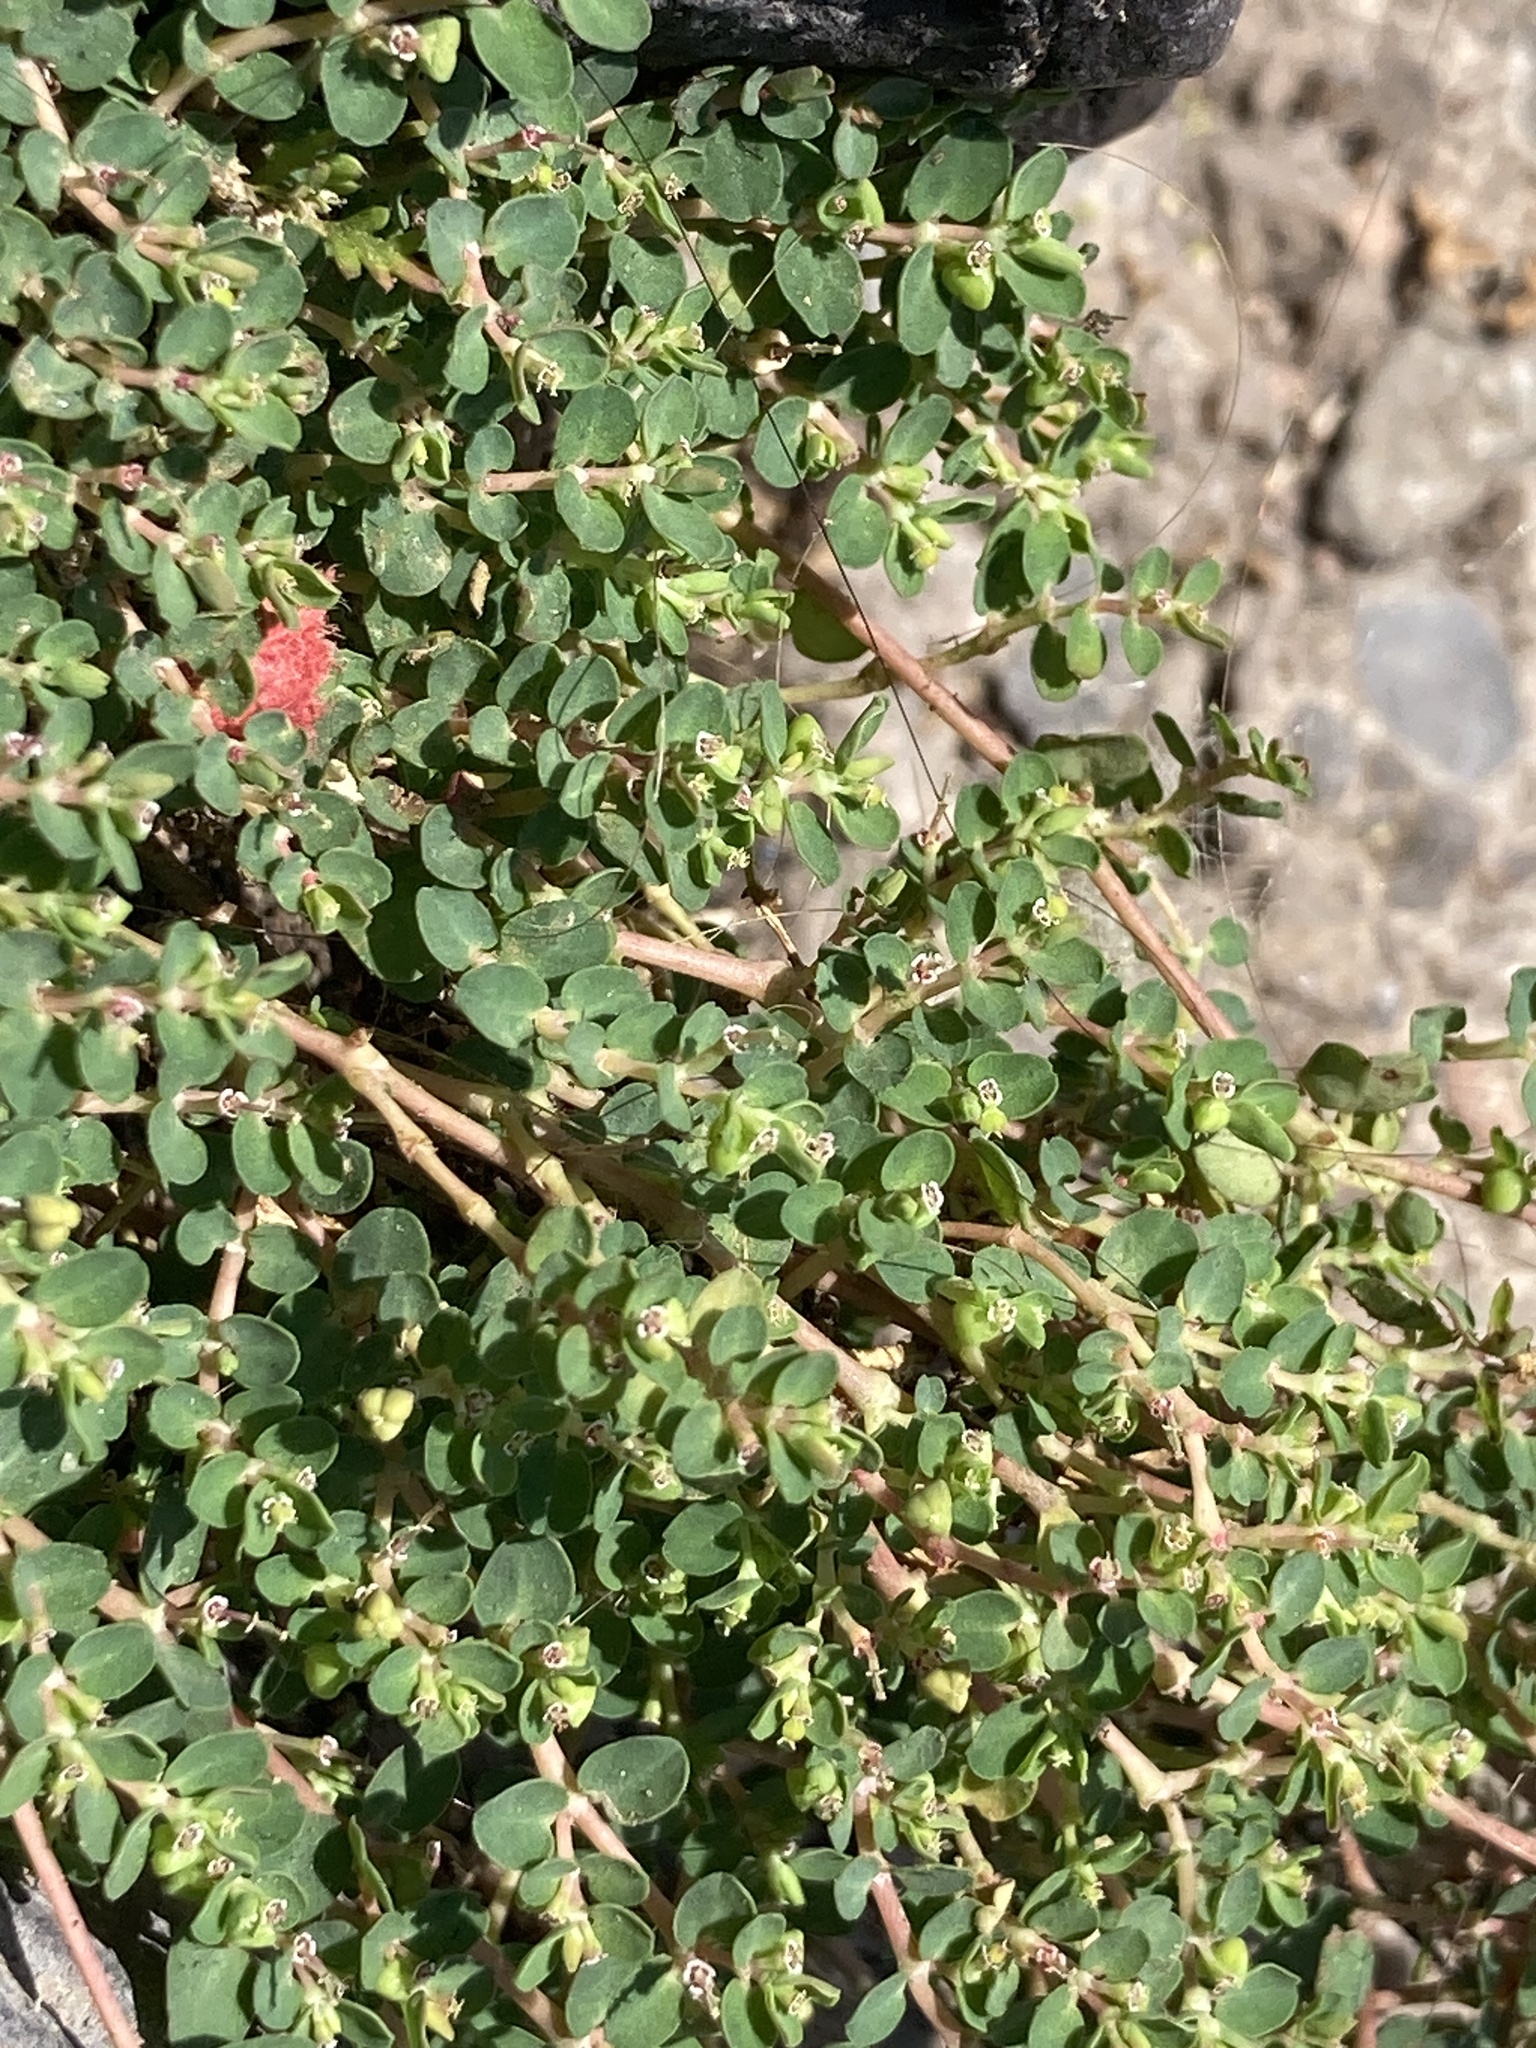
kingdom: Plantae
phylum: Tracheophyta
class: Magnoliopsida
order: Malpighiales
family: Euphorbiaceae
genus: Euphorbia
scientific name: Euphorbia serpens
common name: Matted sandmat
